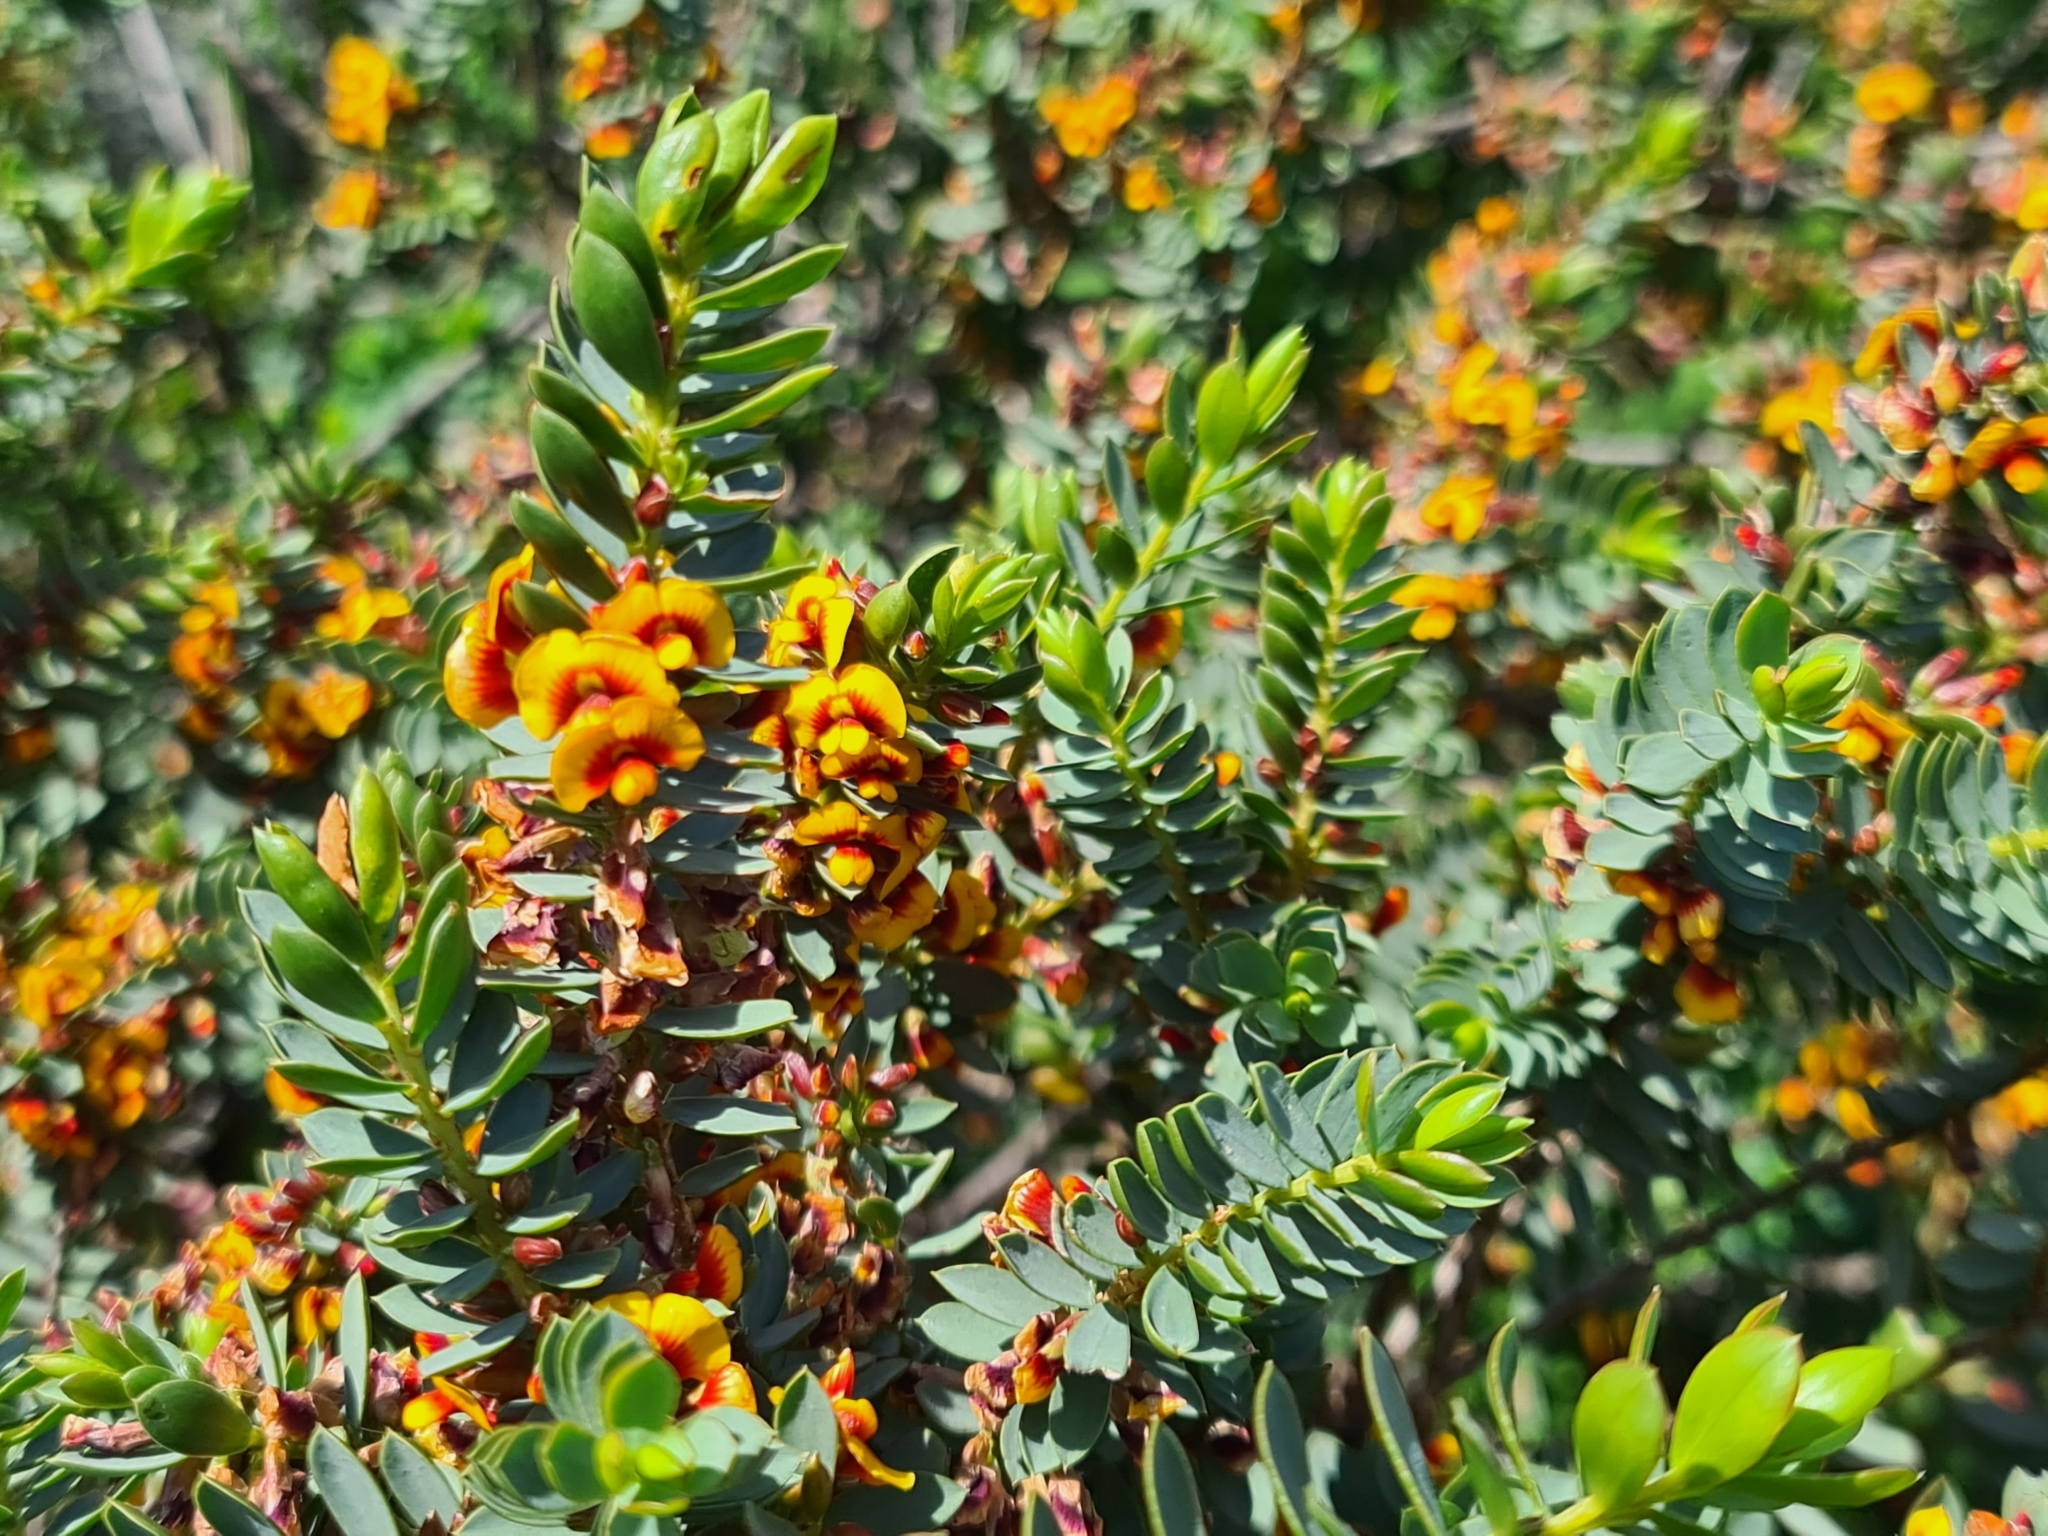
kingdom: Plantae
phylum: Tracheophyta
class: Magnoliopsida
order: Fabales
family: Fabaceae
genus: Eutaxia
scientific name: Eutaxia myrtifolia
